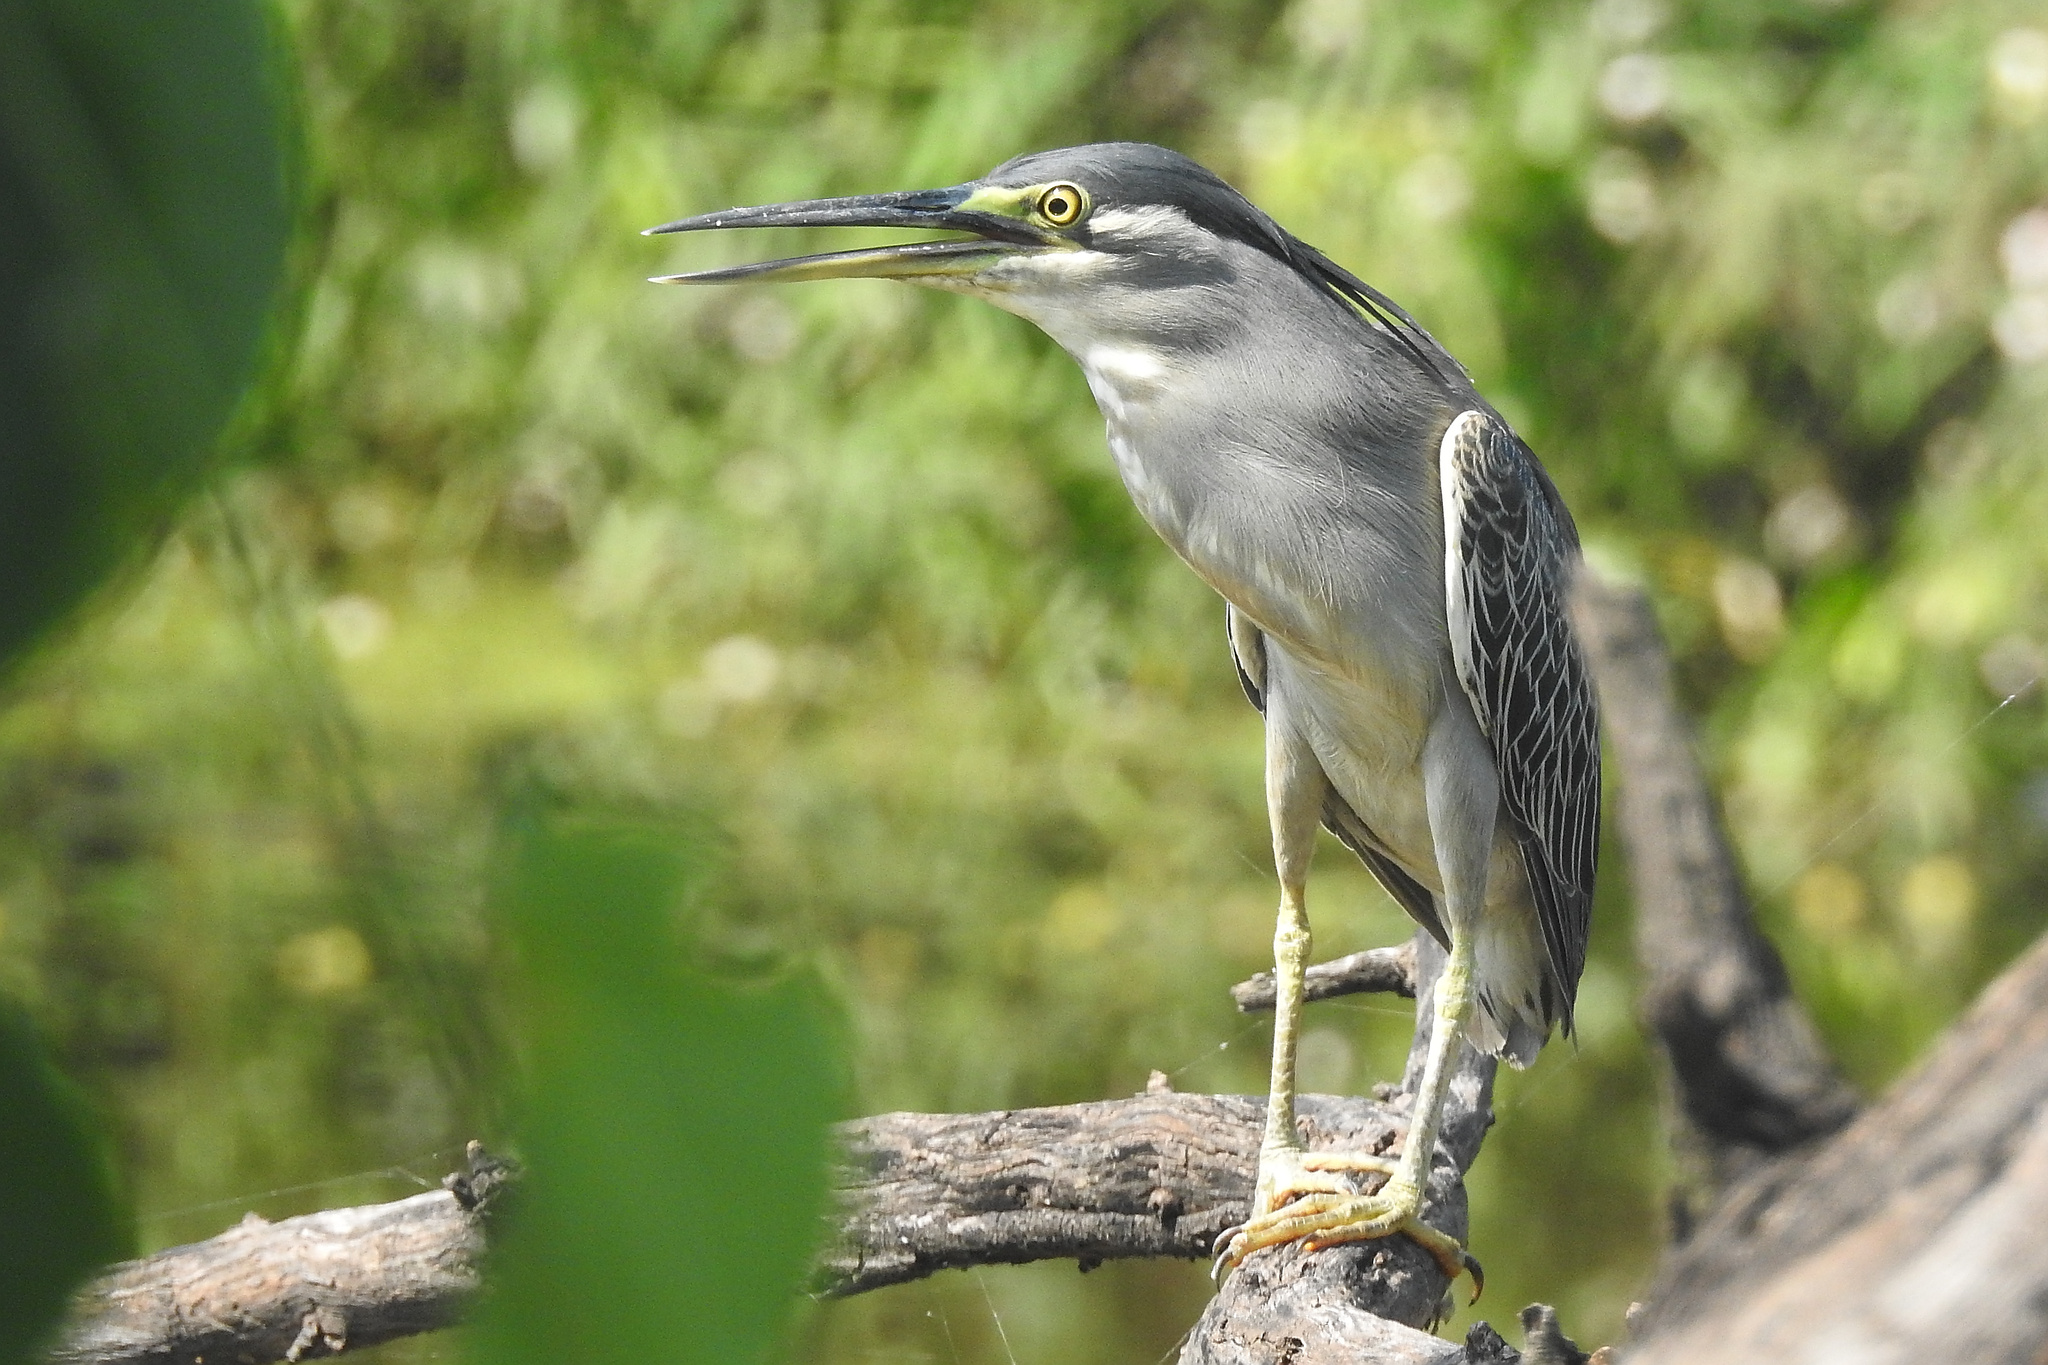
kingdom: Animalia
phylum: Chordata
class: Aves
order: Pelecaniformes
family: Ardeidae
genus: Butorides
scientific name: Butorides striata
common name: Striated heron
